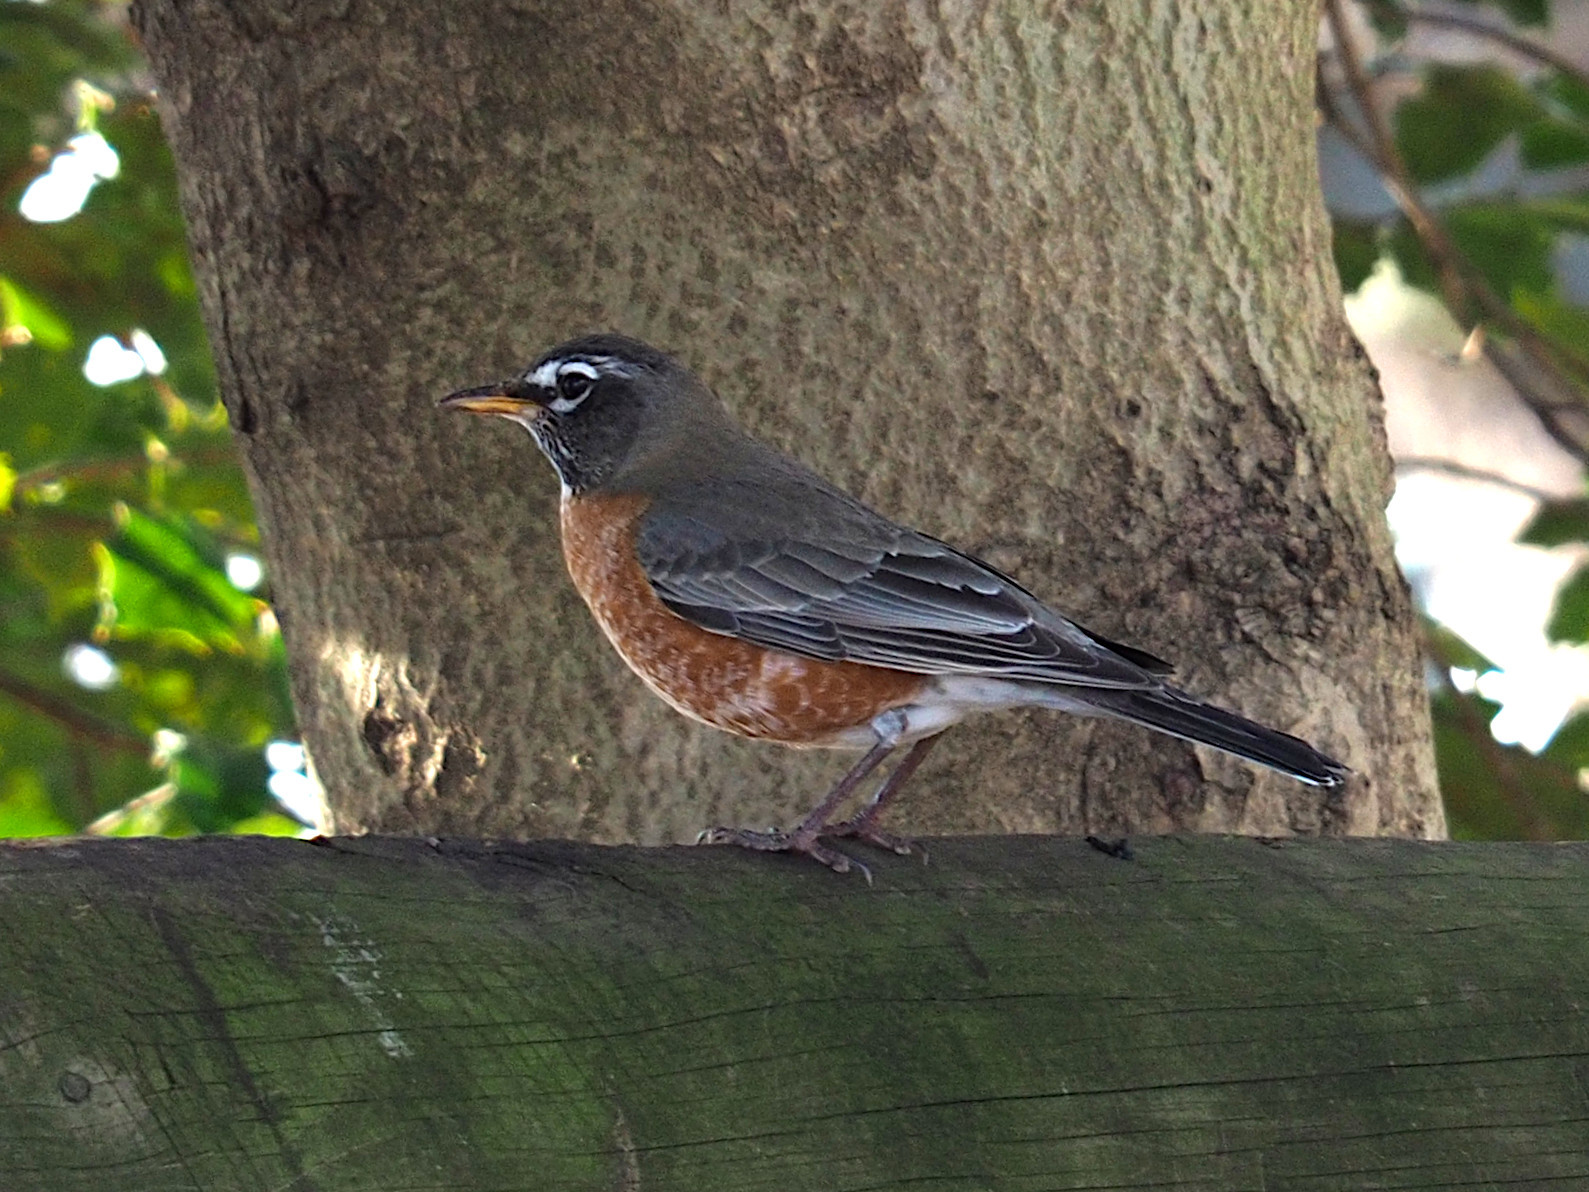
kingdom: Animalia
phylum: Chordata
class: Aves
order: Passeriformes
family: Turdidae
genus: Turdus
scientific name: Turdus migratorius
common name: American robin
